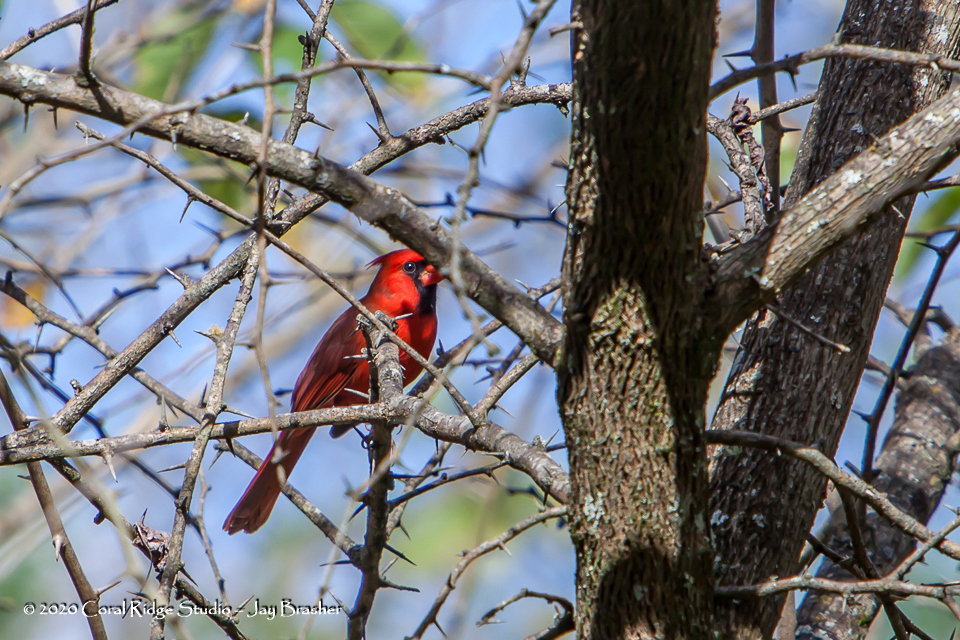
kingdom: Animalia
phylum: Chordata
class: Aves
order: Passeriformes
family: Cardinalidae
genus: Cardinalis
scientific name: Cardinalis cardinalis
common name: Northern cardinal
